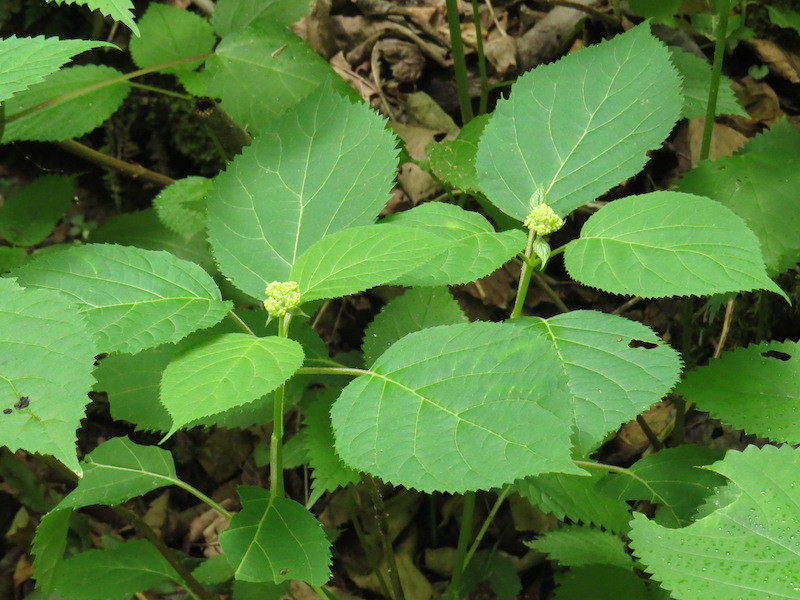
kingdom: Plantae
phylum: Tracheophyta
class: Magnoliopsida
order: Cornales
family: Hydrangeaceae
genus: Hydrangea
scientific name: Hydrangea arborescens
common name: Sevenbark
